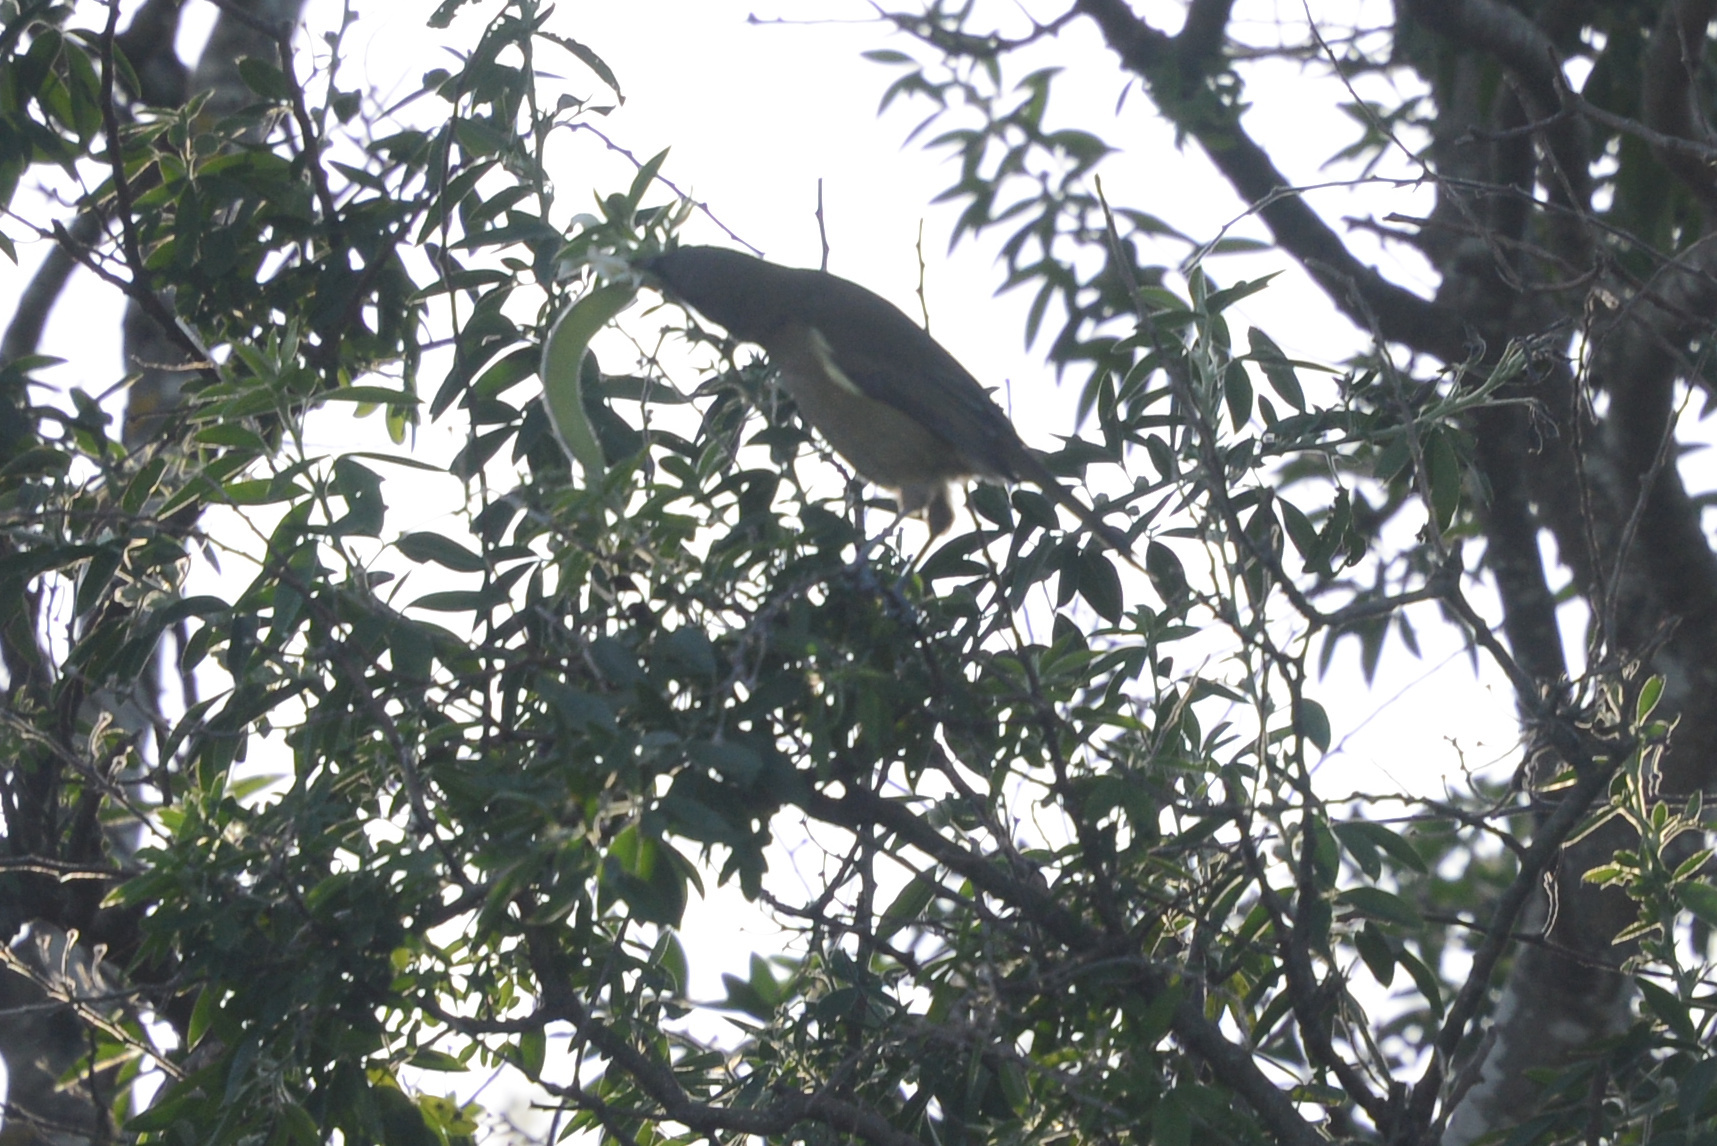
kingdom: Animalia
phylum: Chordata
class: Aves
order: Passeriformes
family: Meliphagidae
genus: Anthornis
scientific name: Anthornis melanura
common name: New zealand bellbird
